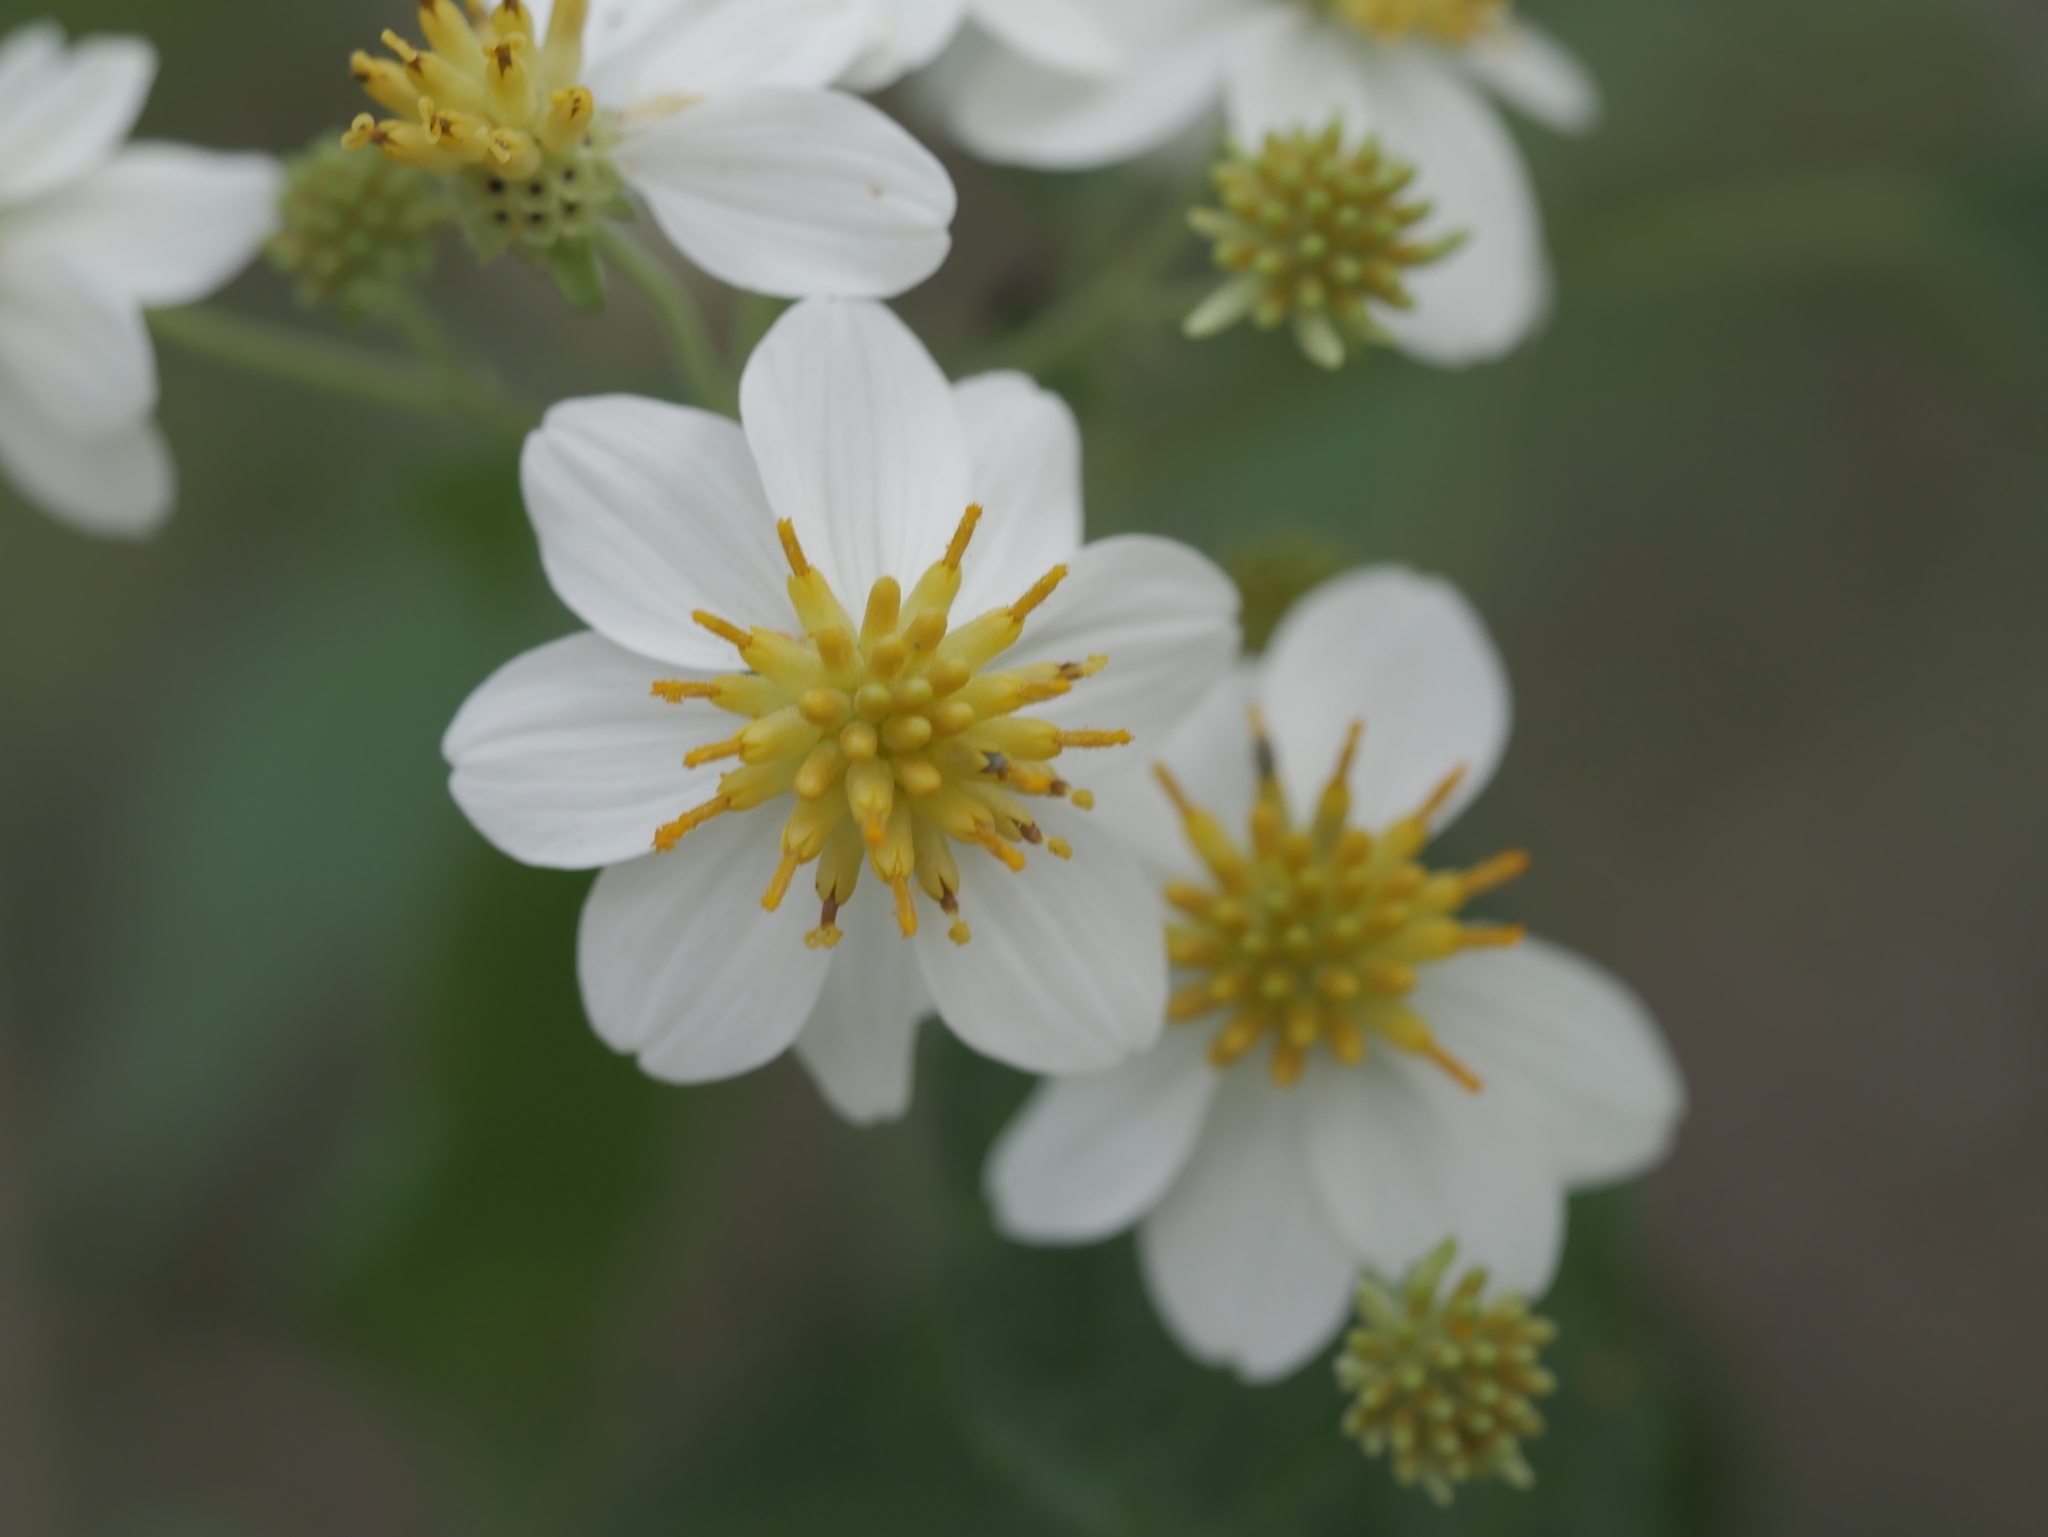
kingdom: Plantae
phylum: Tracheophyta
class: Magnoliopsida
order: Asterales
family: Asteraceae
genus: Montanoa
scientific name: Montanoa karwinskii
